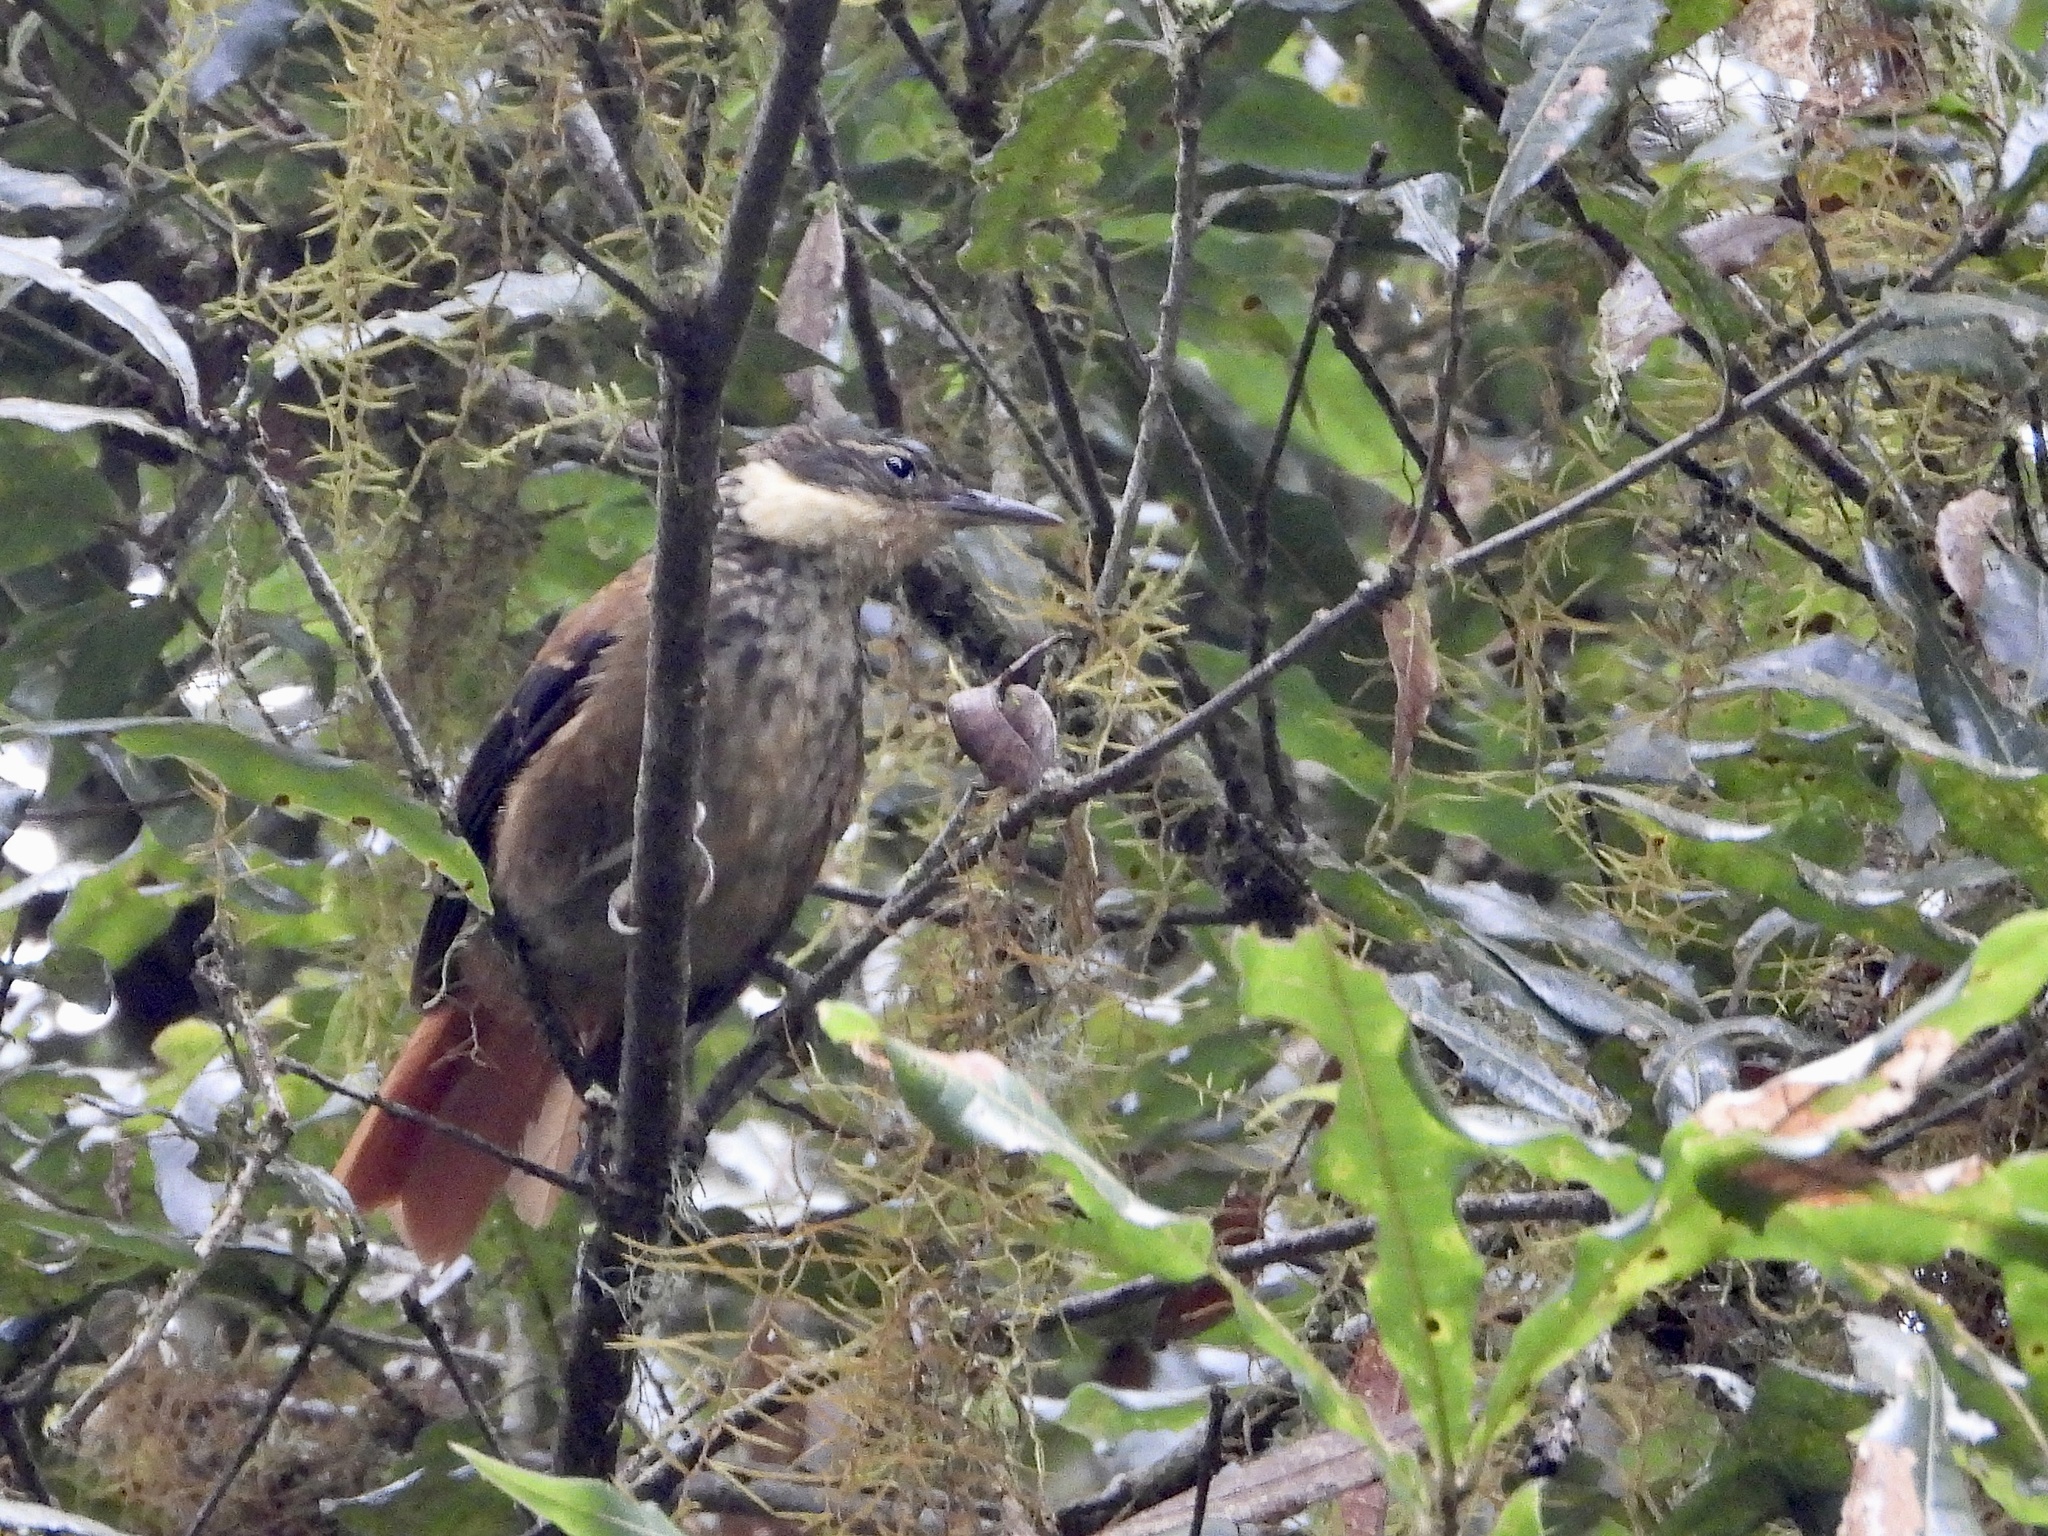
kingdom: Animalia
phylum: Chordata
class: Aves
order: Passeriformes
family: Furnariidae
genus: Pseudocolaptes
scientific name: Pseudocolaptes lawrencii
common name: Buffy tuftedcheek
